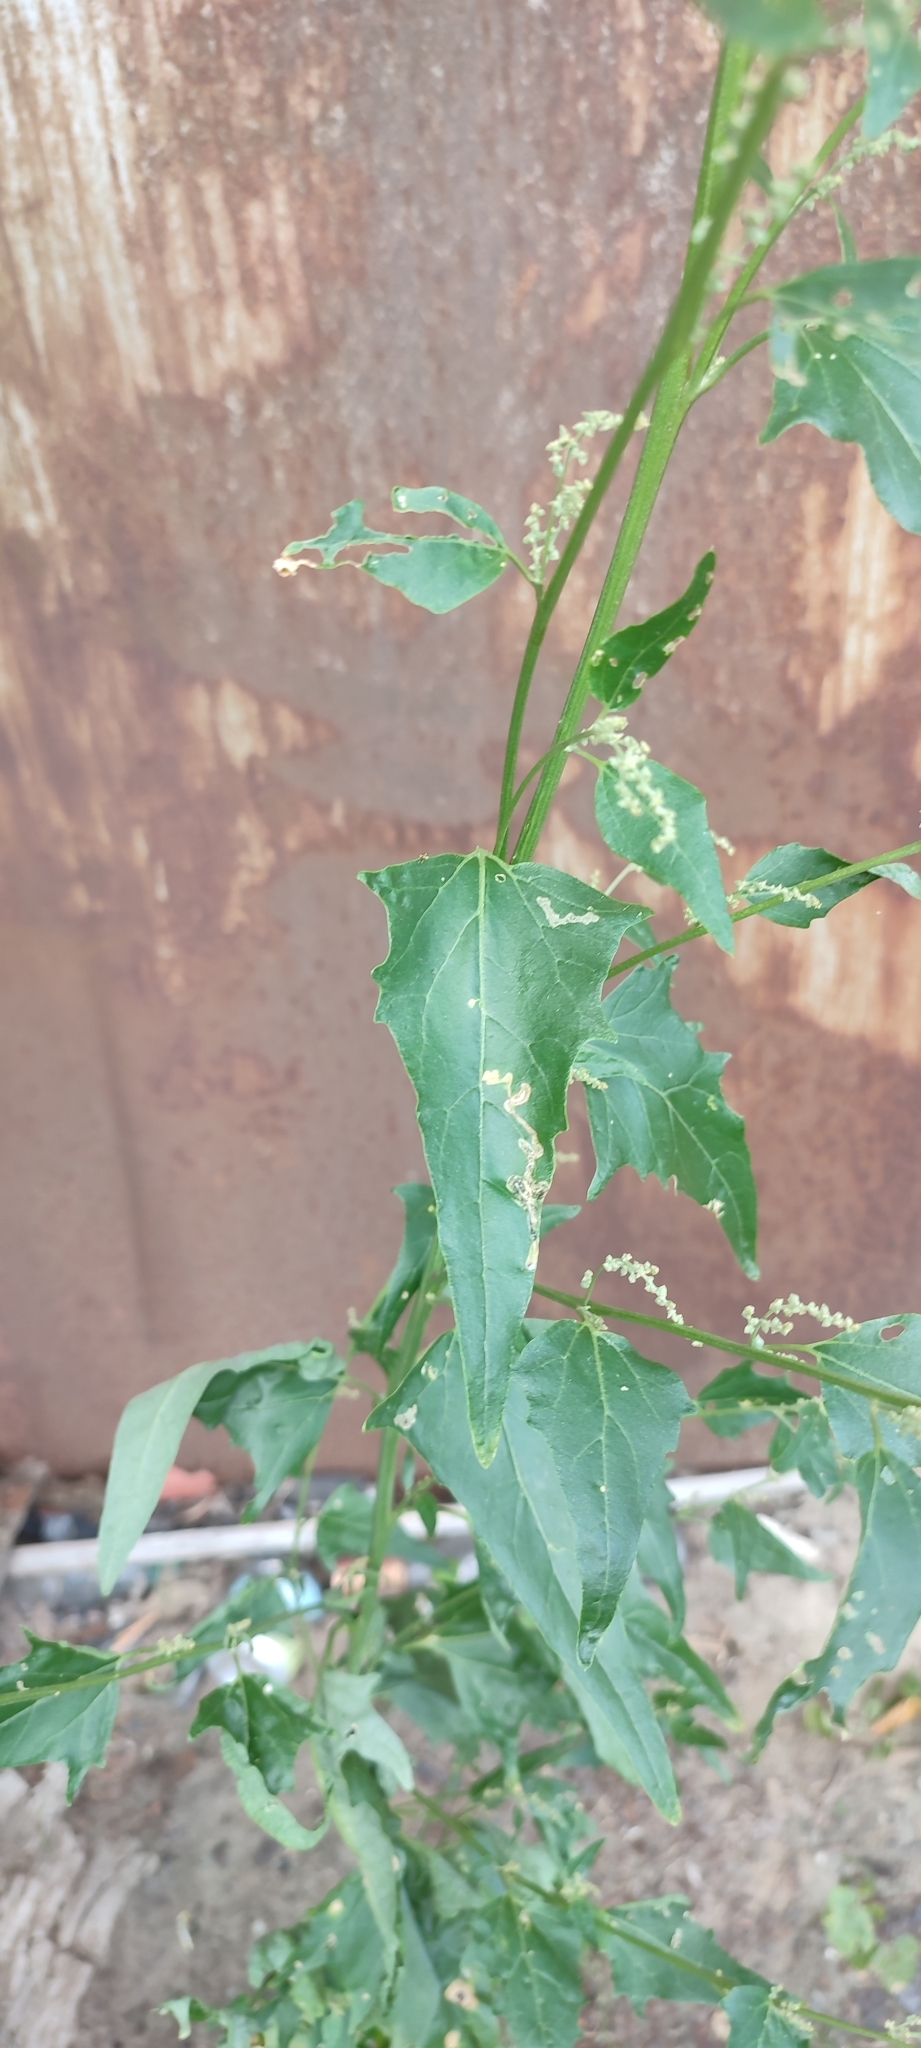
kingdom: Plantae
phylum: Tracheophyta
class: Magnoliopsida
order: Caryophyllales
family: Amaranthaceae
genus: Atriplex
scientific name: Atriplex sagittata
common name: Purple orache
